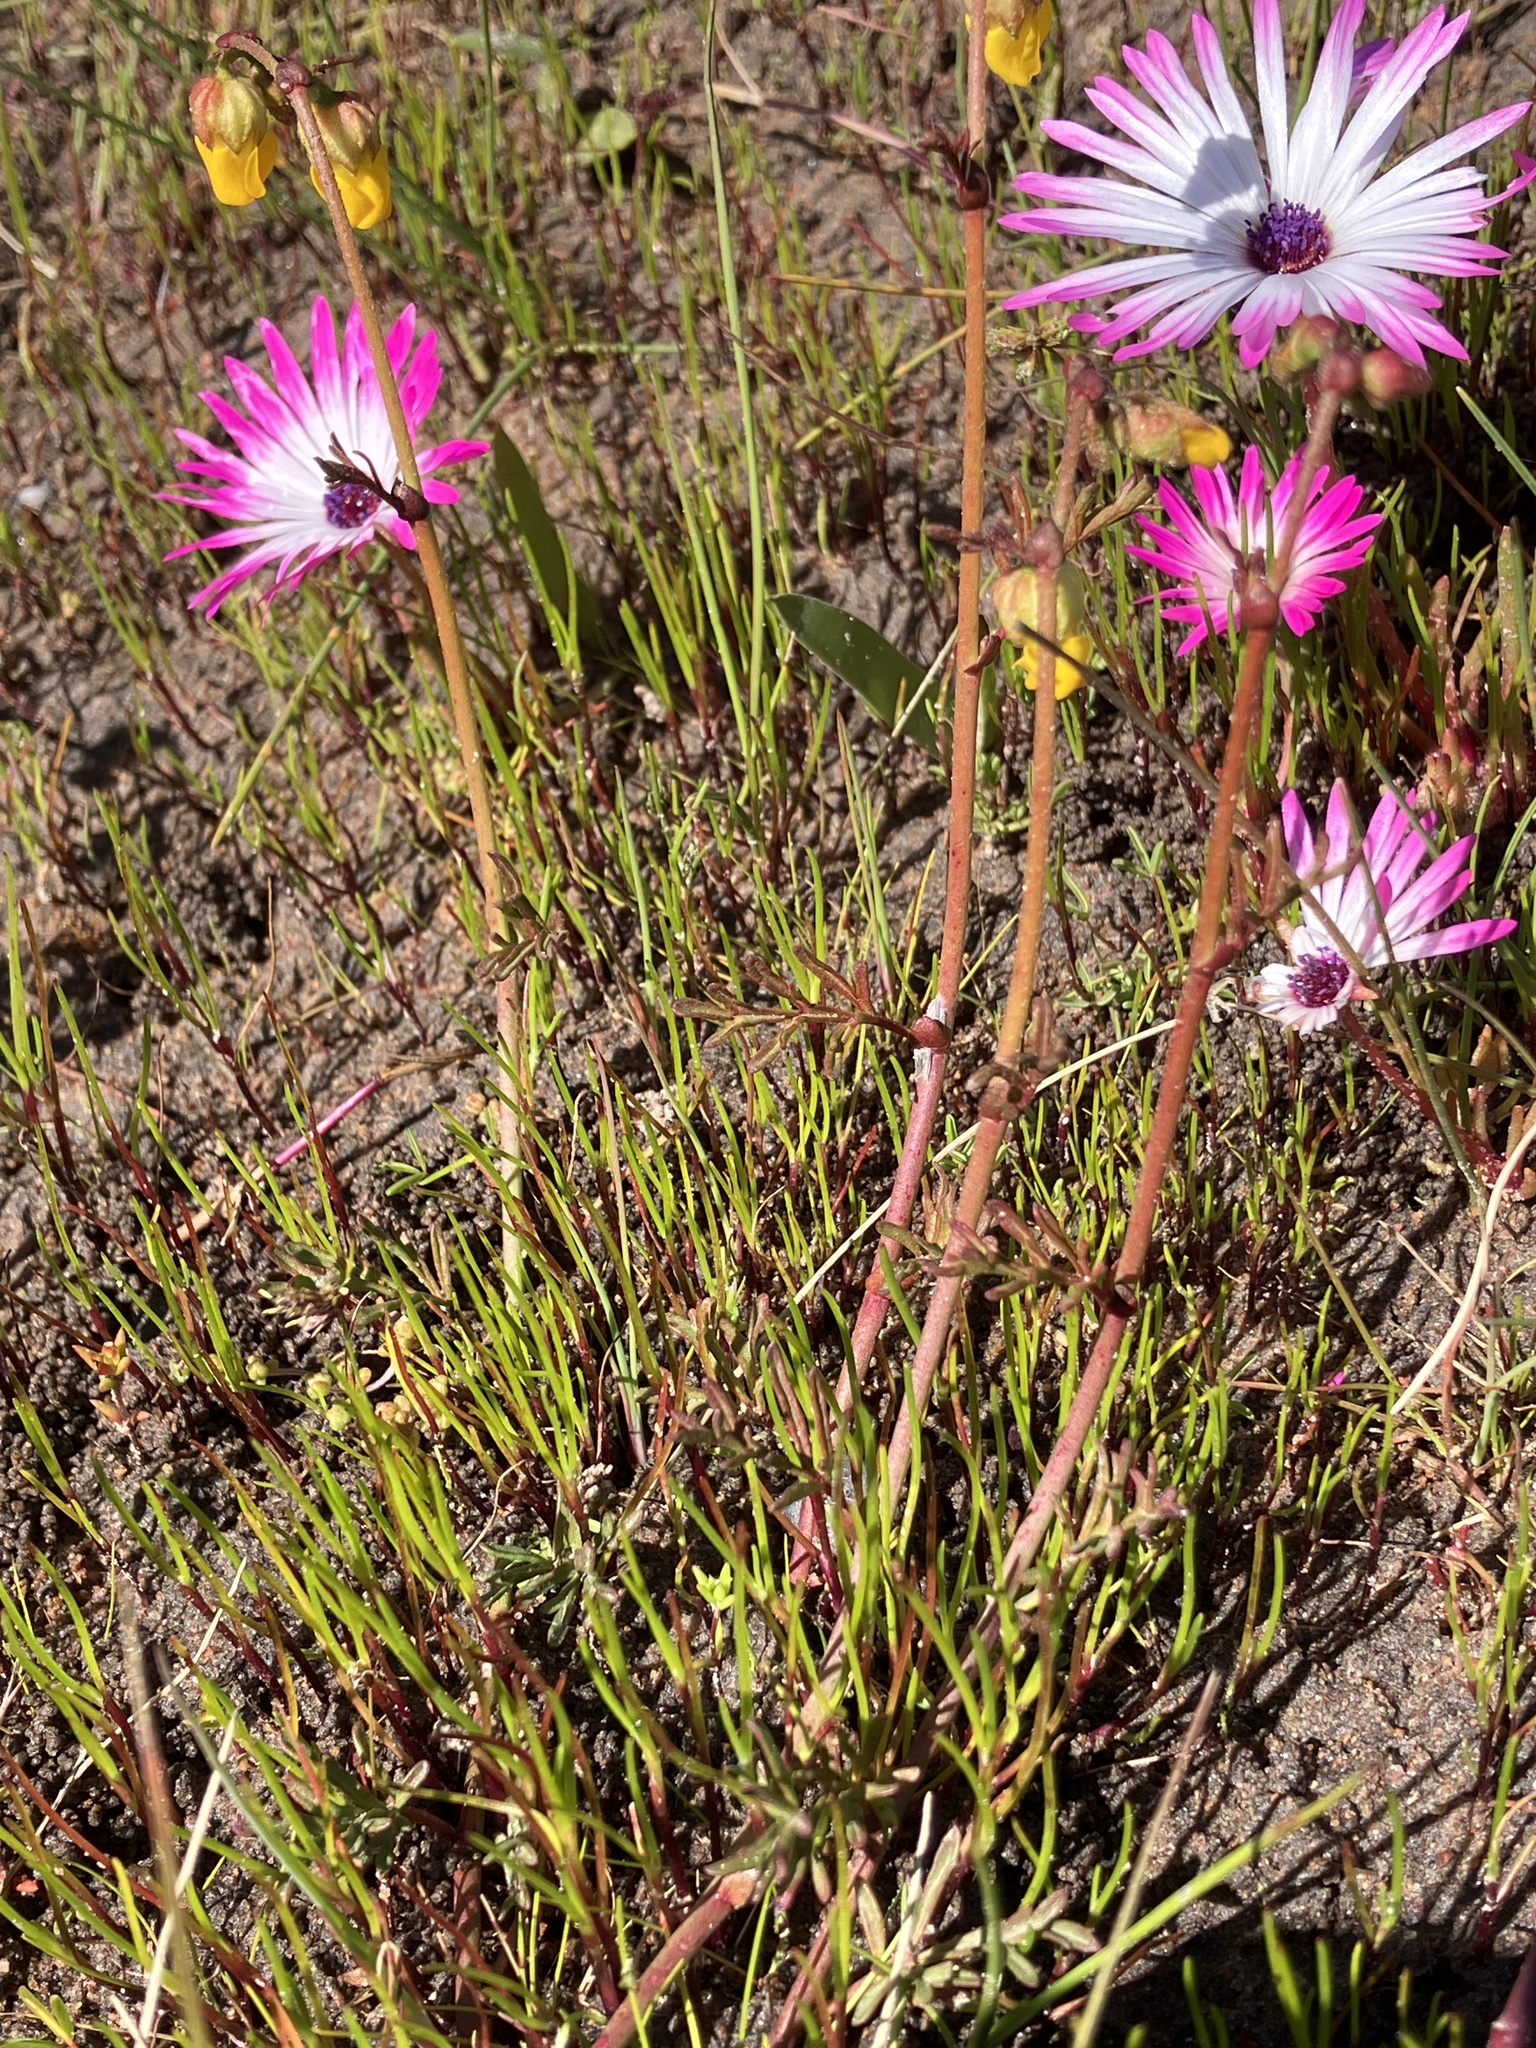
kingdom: Plantae
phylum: Tracheophyta
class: Magnoliopsida
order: Caryophyllales
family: Aizoaceae
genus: Cleretum
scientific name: Cleretum clavatum
